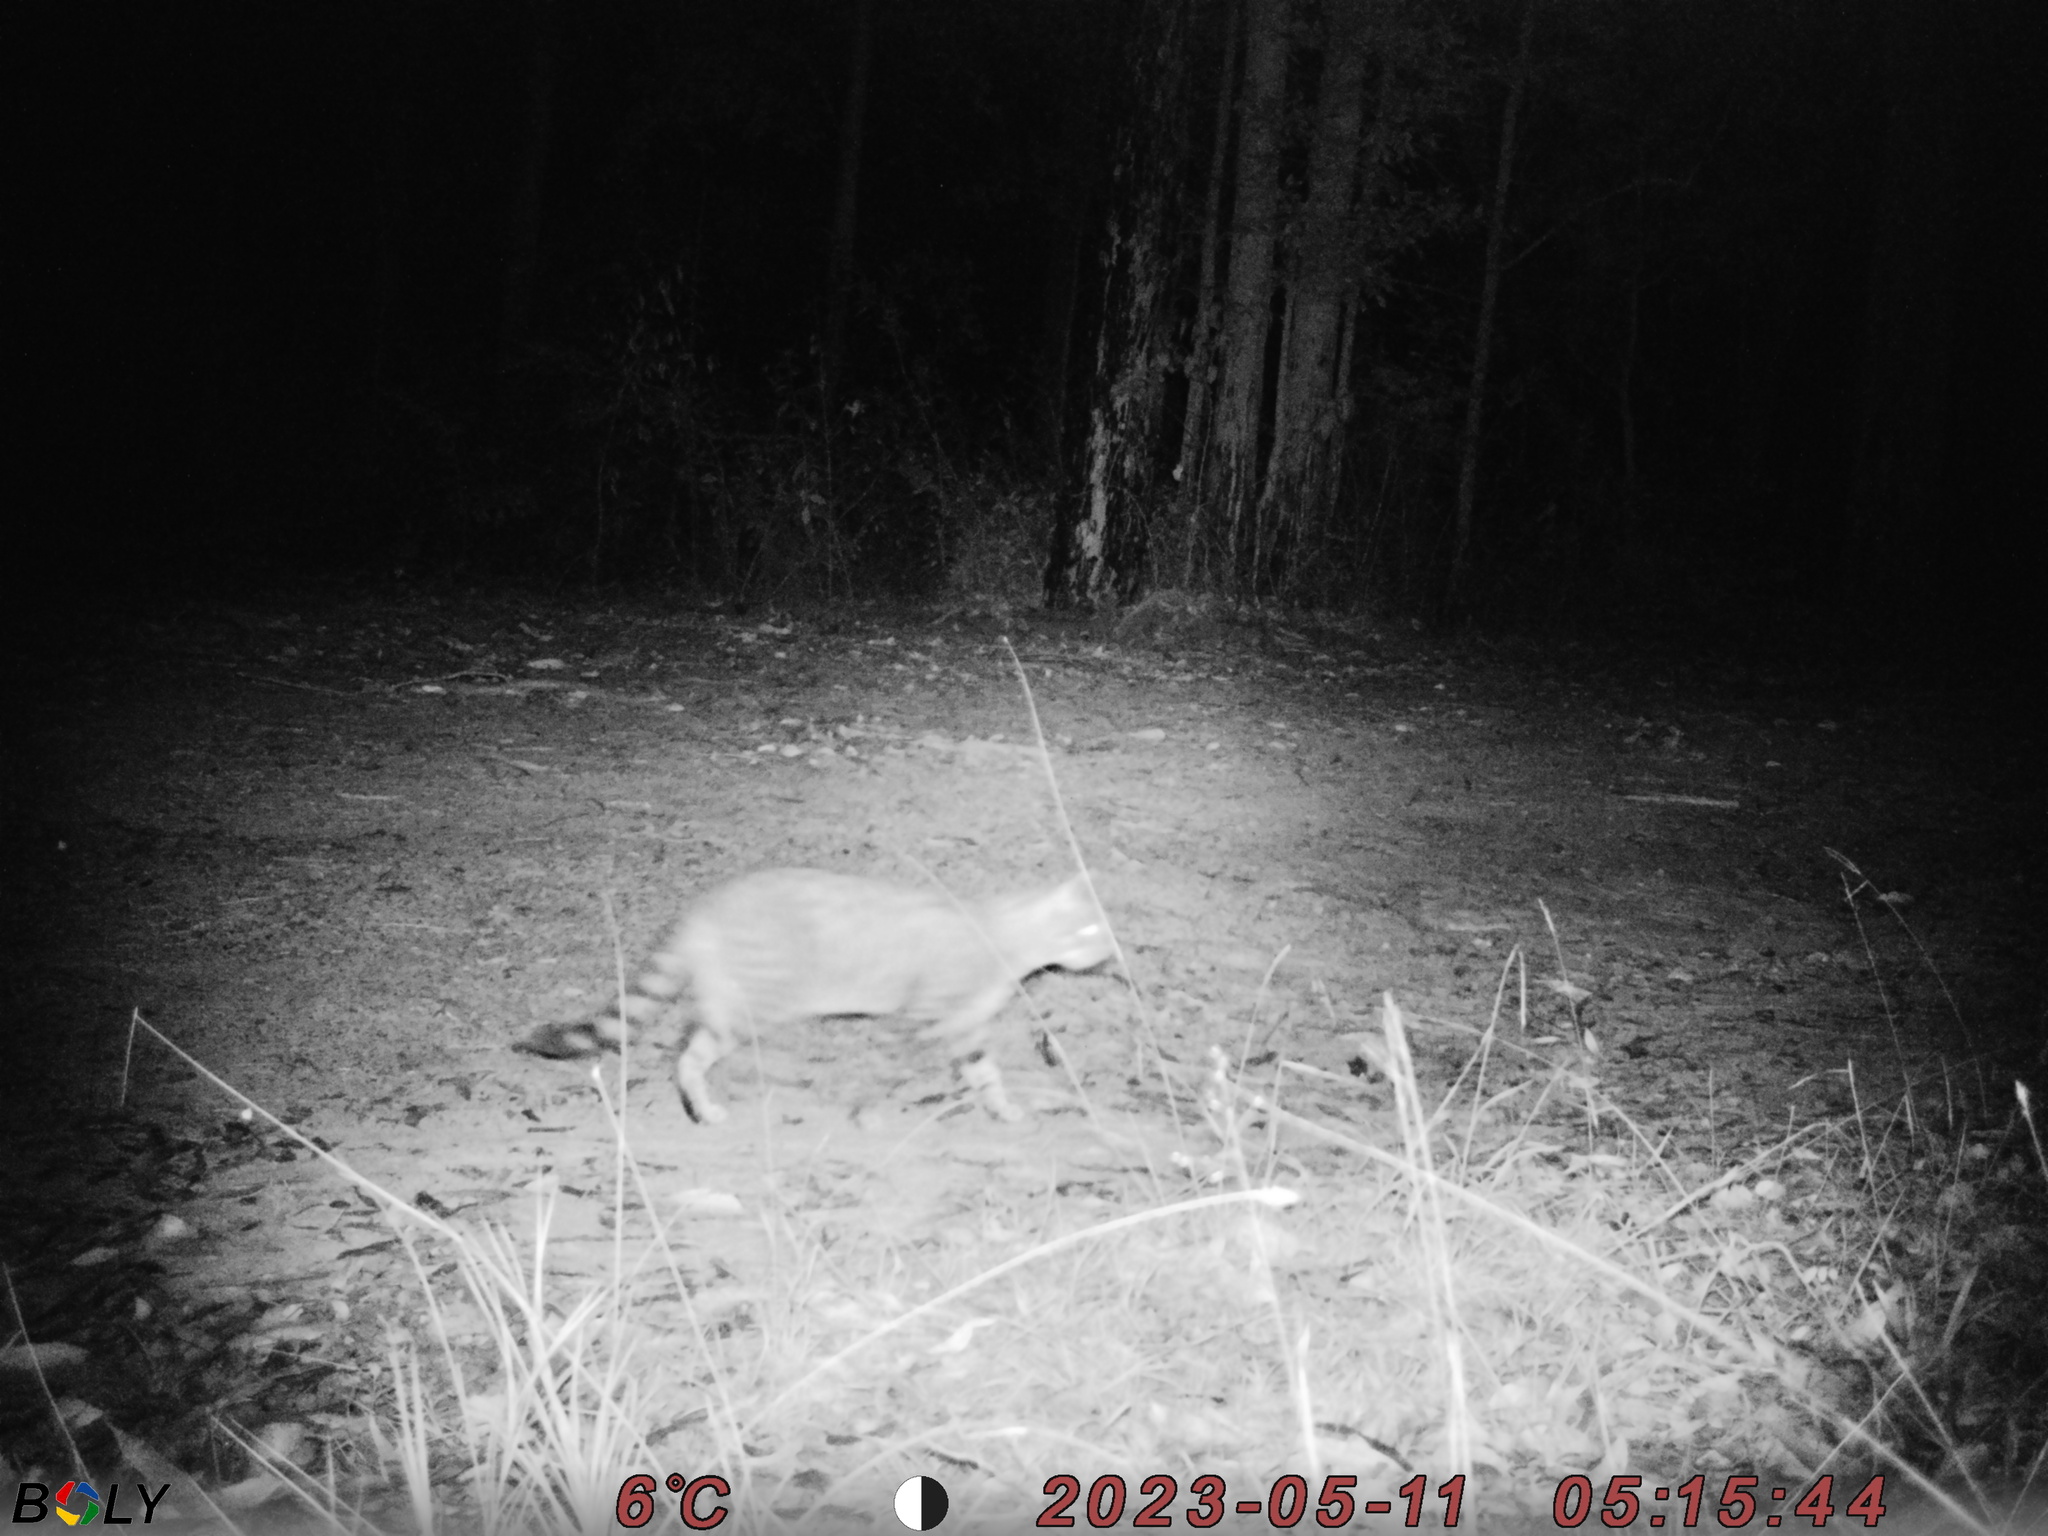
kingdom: Animalia
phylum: Chordata
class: Mammalia
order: Carnivora
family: Felidae
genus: Felis
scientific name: Felis catus
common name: Domestic cat
